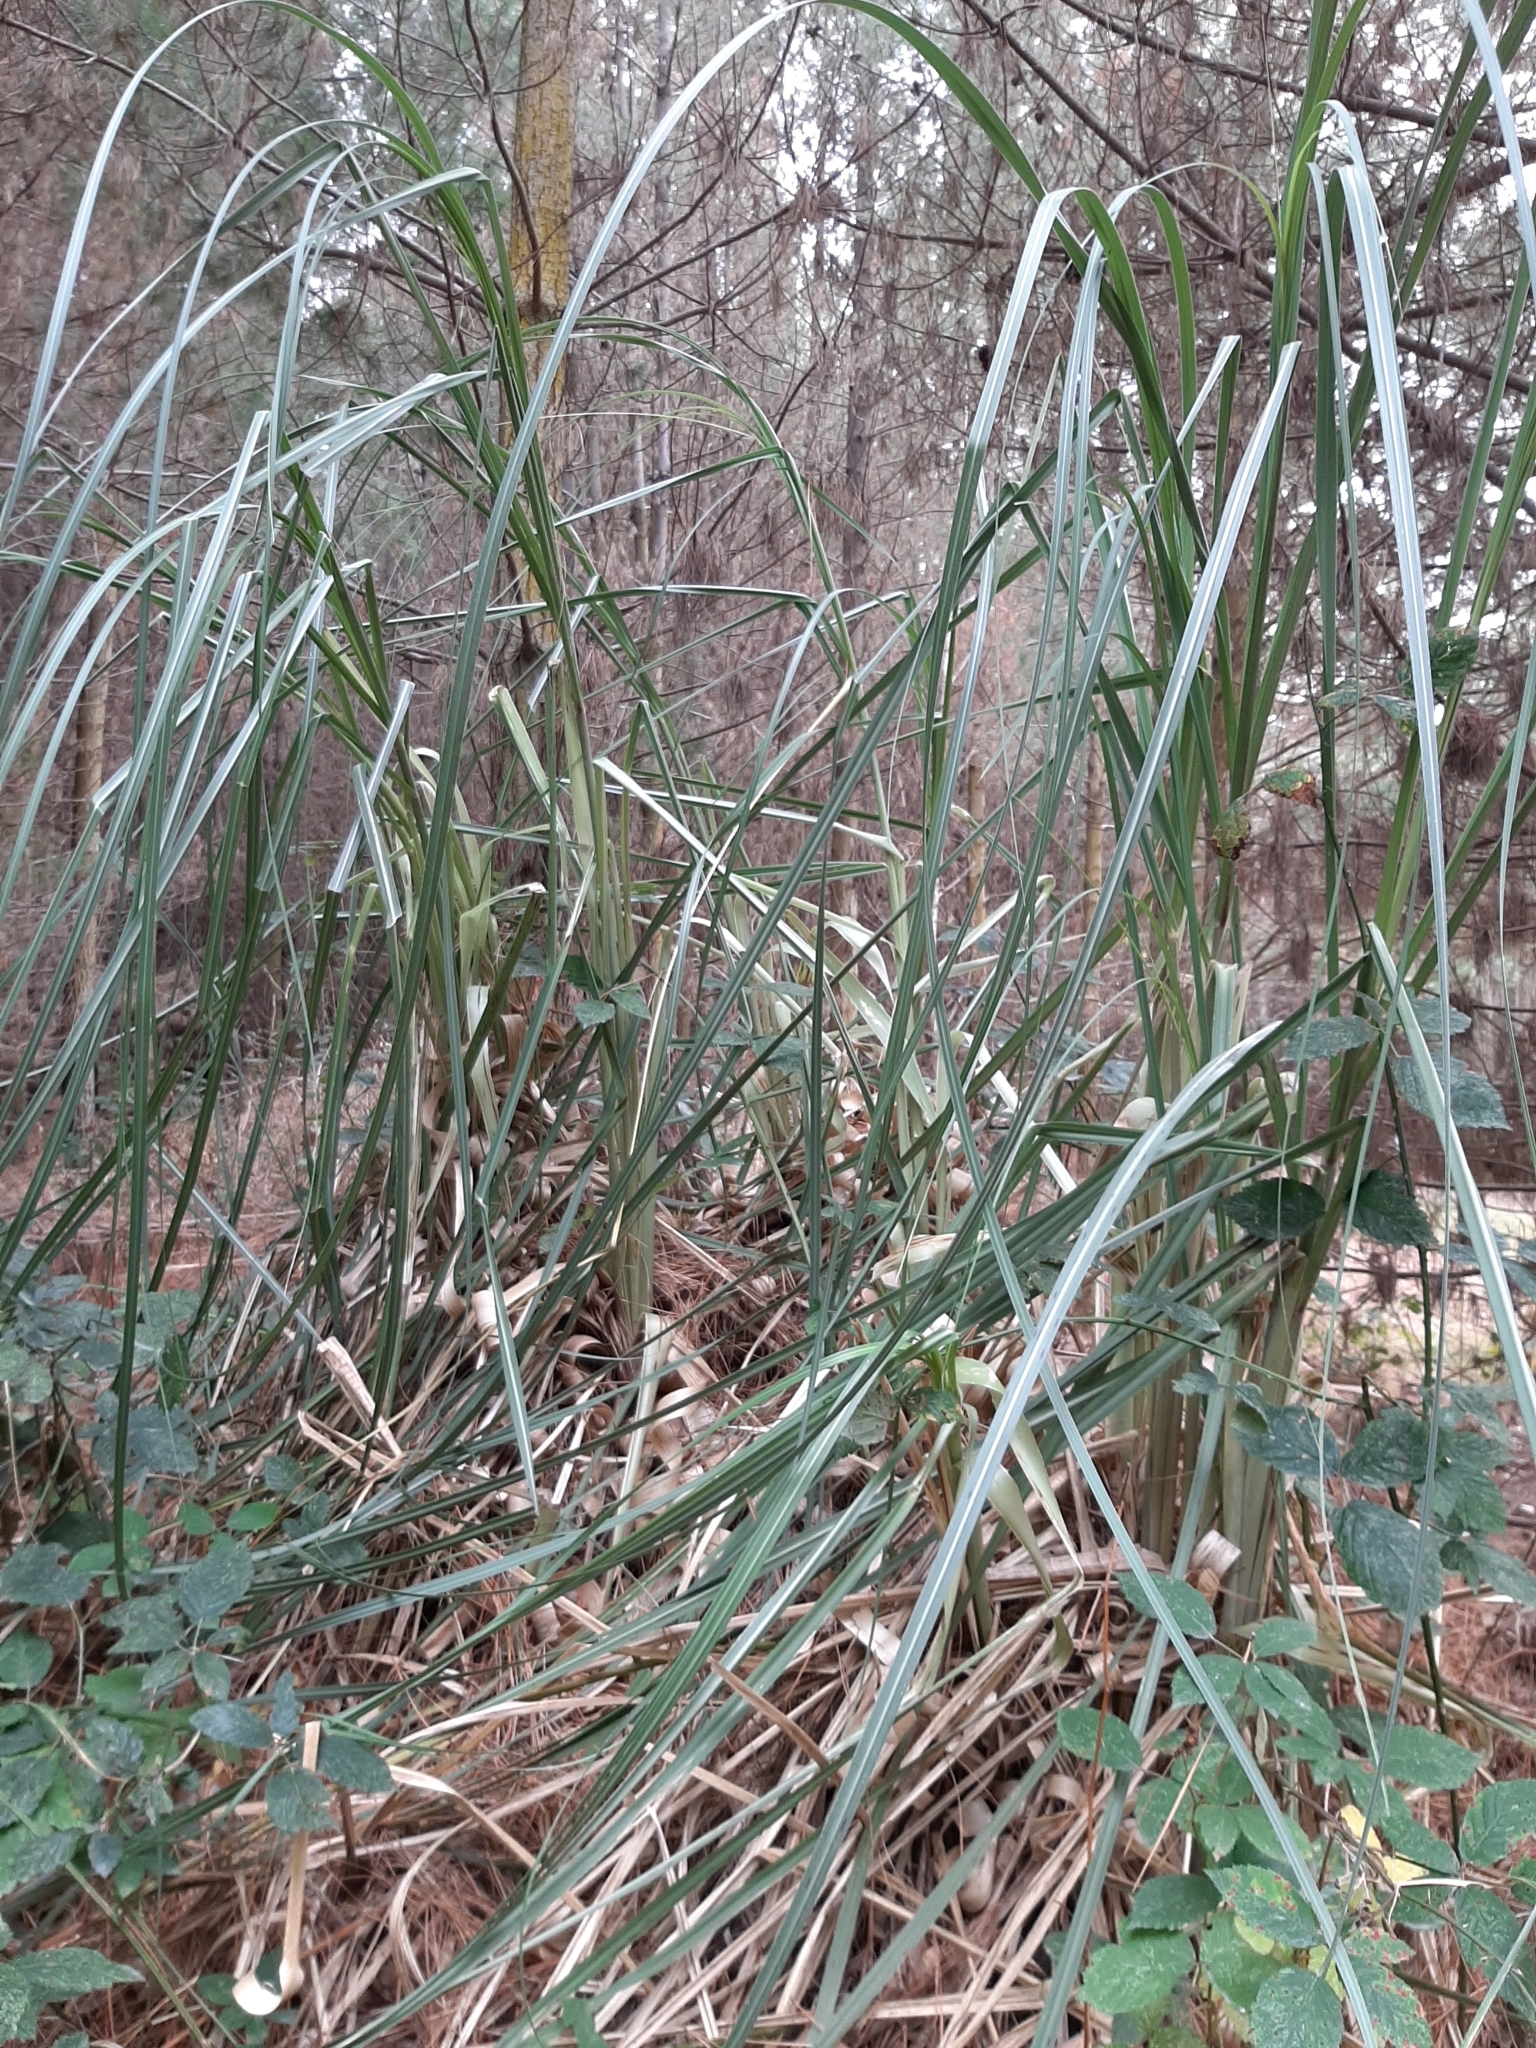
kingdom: Plantae
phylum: Tracheophyta
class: Liliopsida
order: Poales
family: Poaceae
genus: Cortaderia
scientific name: Cortaderia selloana
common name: Uruguayan pampas grass
